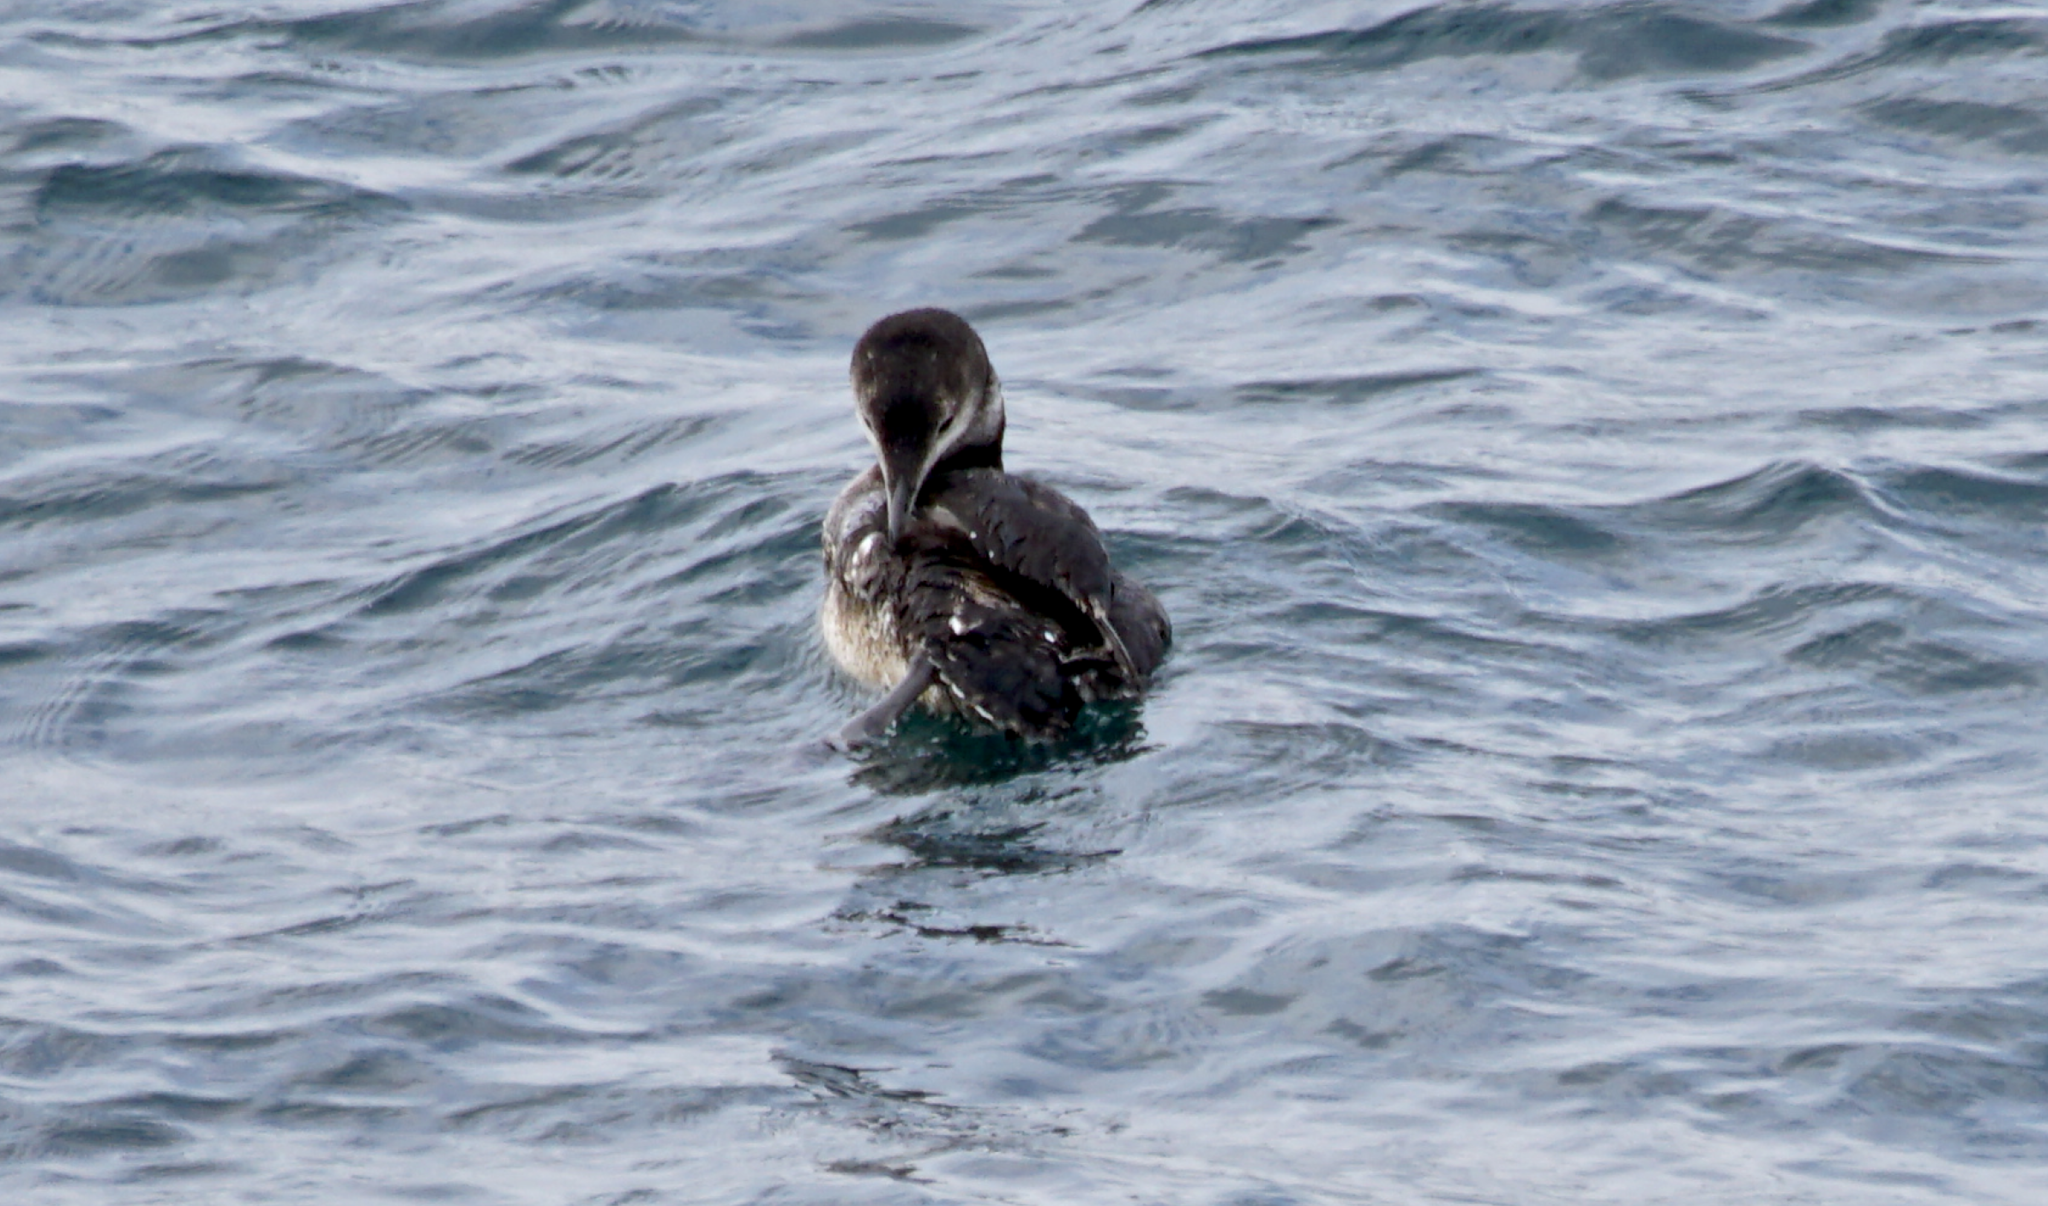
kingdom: Animalia
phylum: Chordata
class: Aves
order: Gaviiformes
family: Gaviidae
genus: Gavia
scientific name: Gavia immer
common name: Common loon
